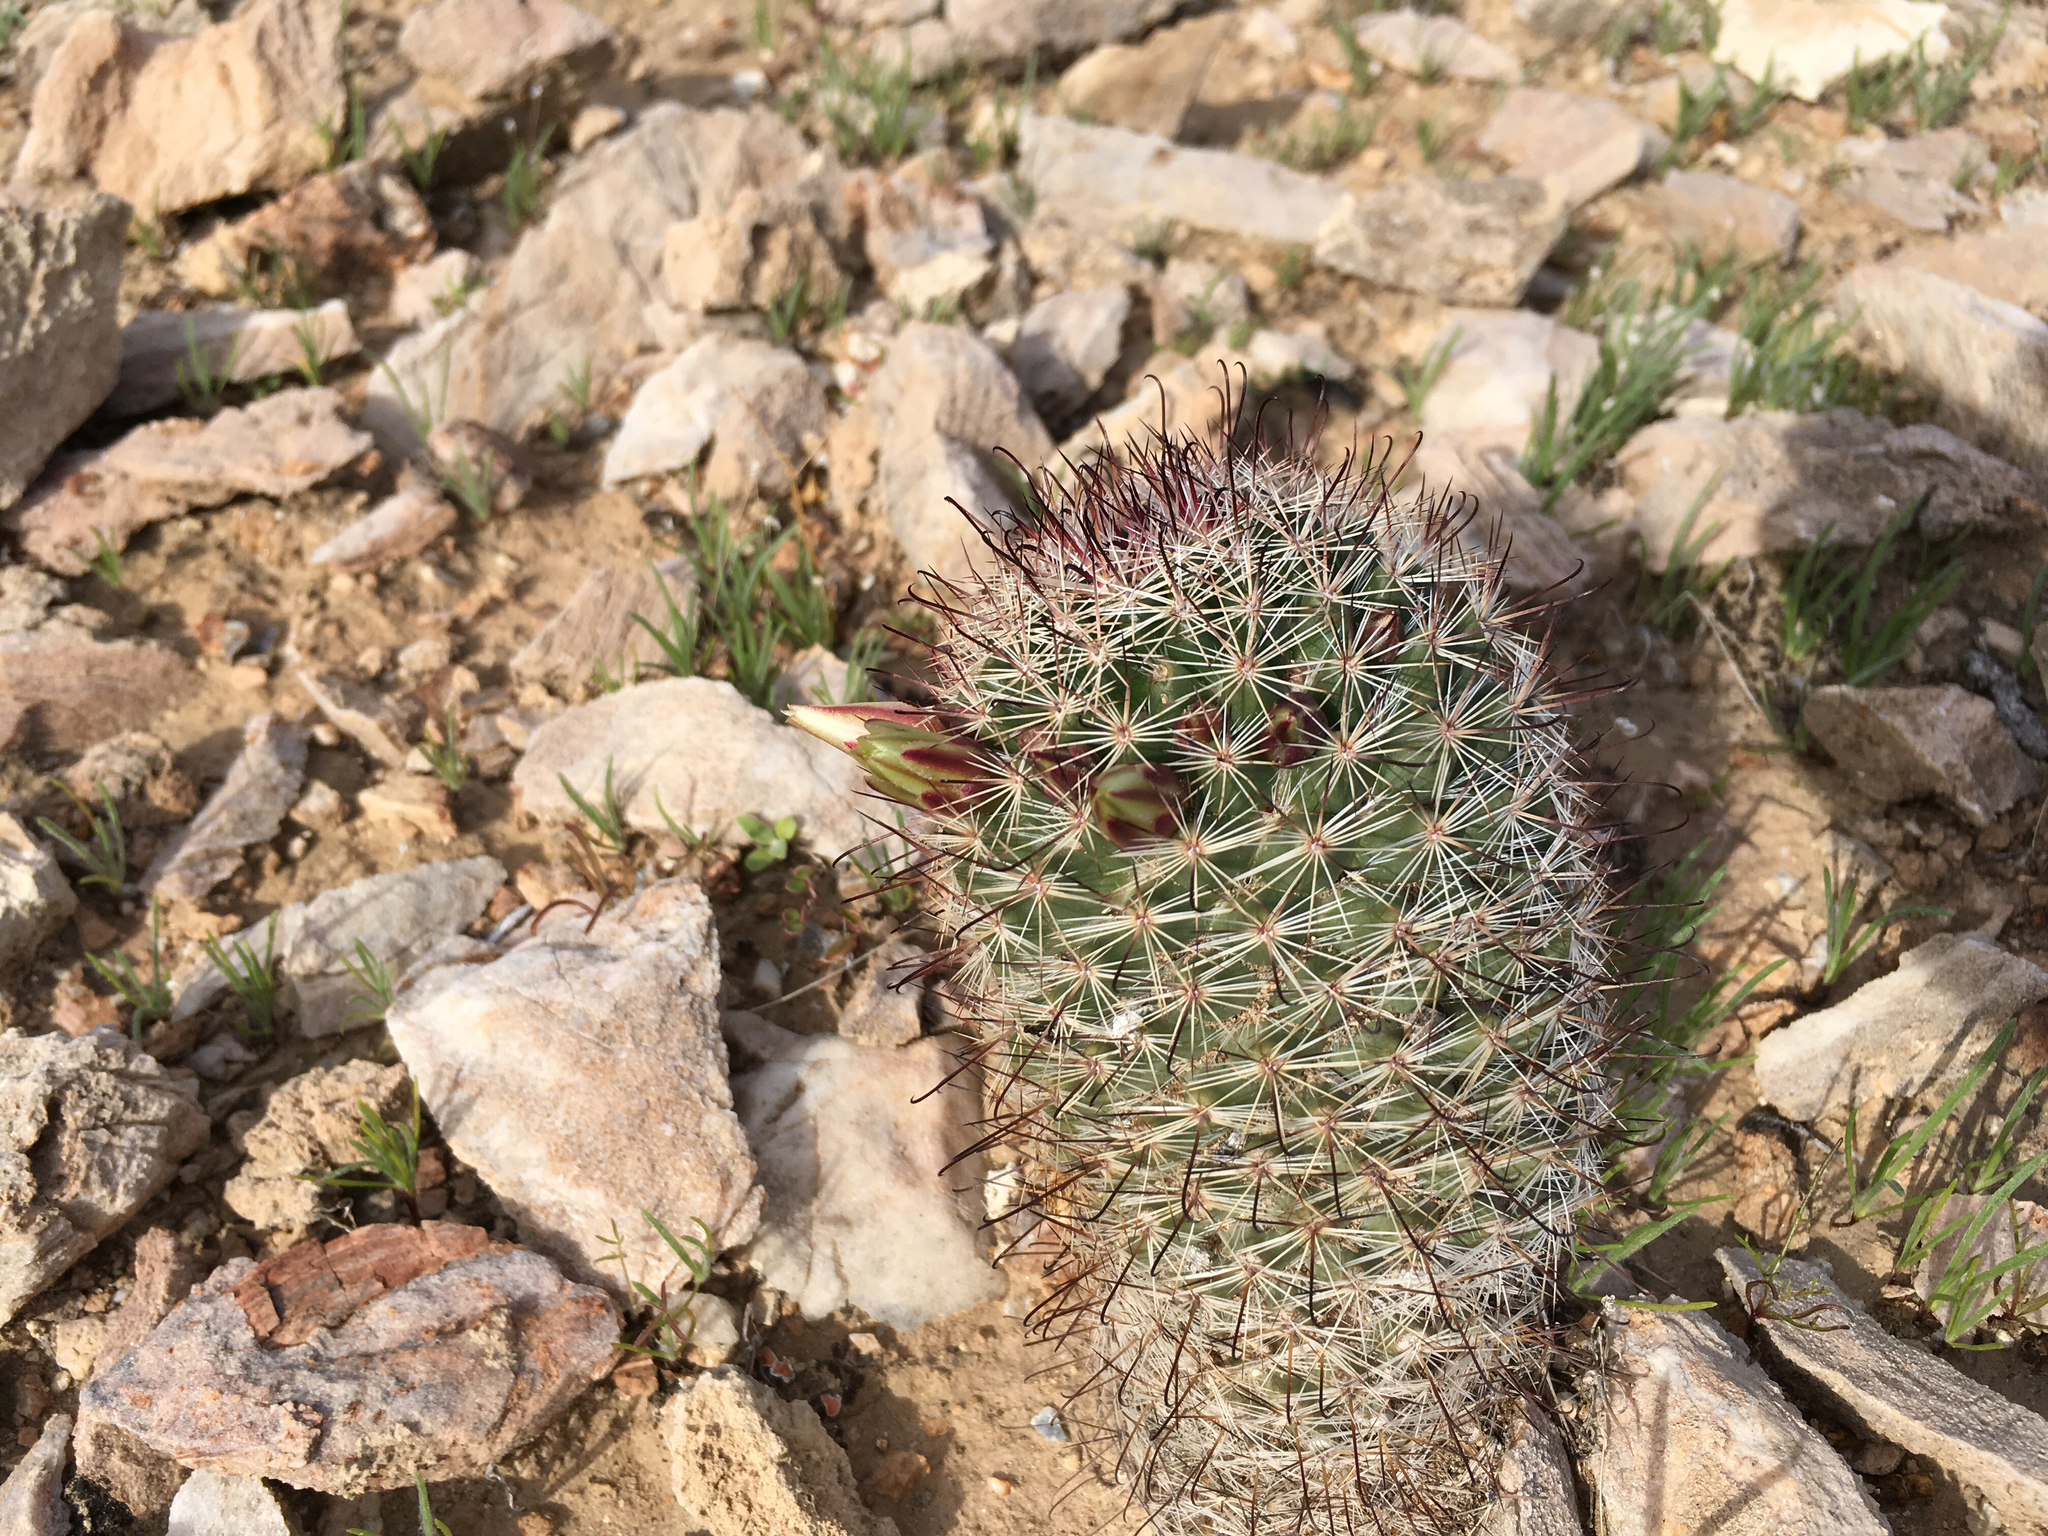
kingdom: Plantae
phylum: Tracheophyta
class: Magnoliopsida
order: Caryophyllales
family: Cactaceae
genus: Cochemiea
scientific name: Cochemiea dioica
